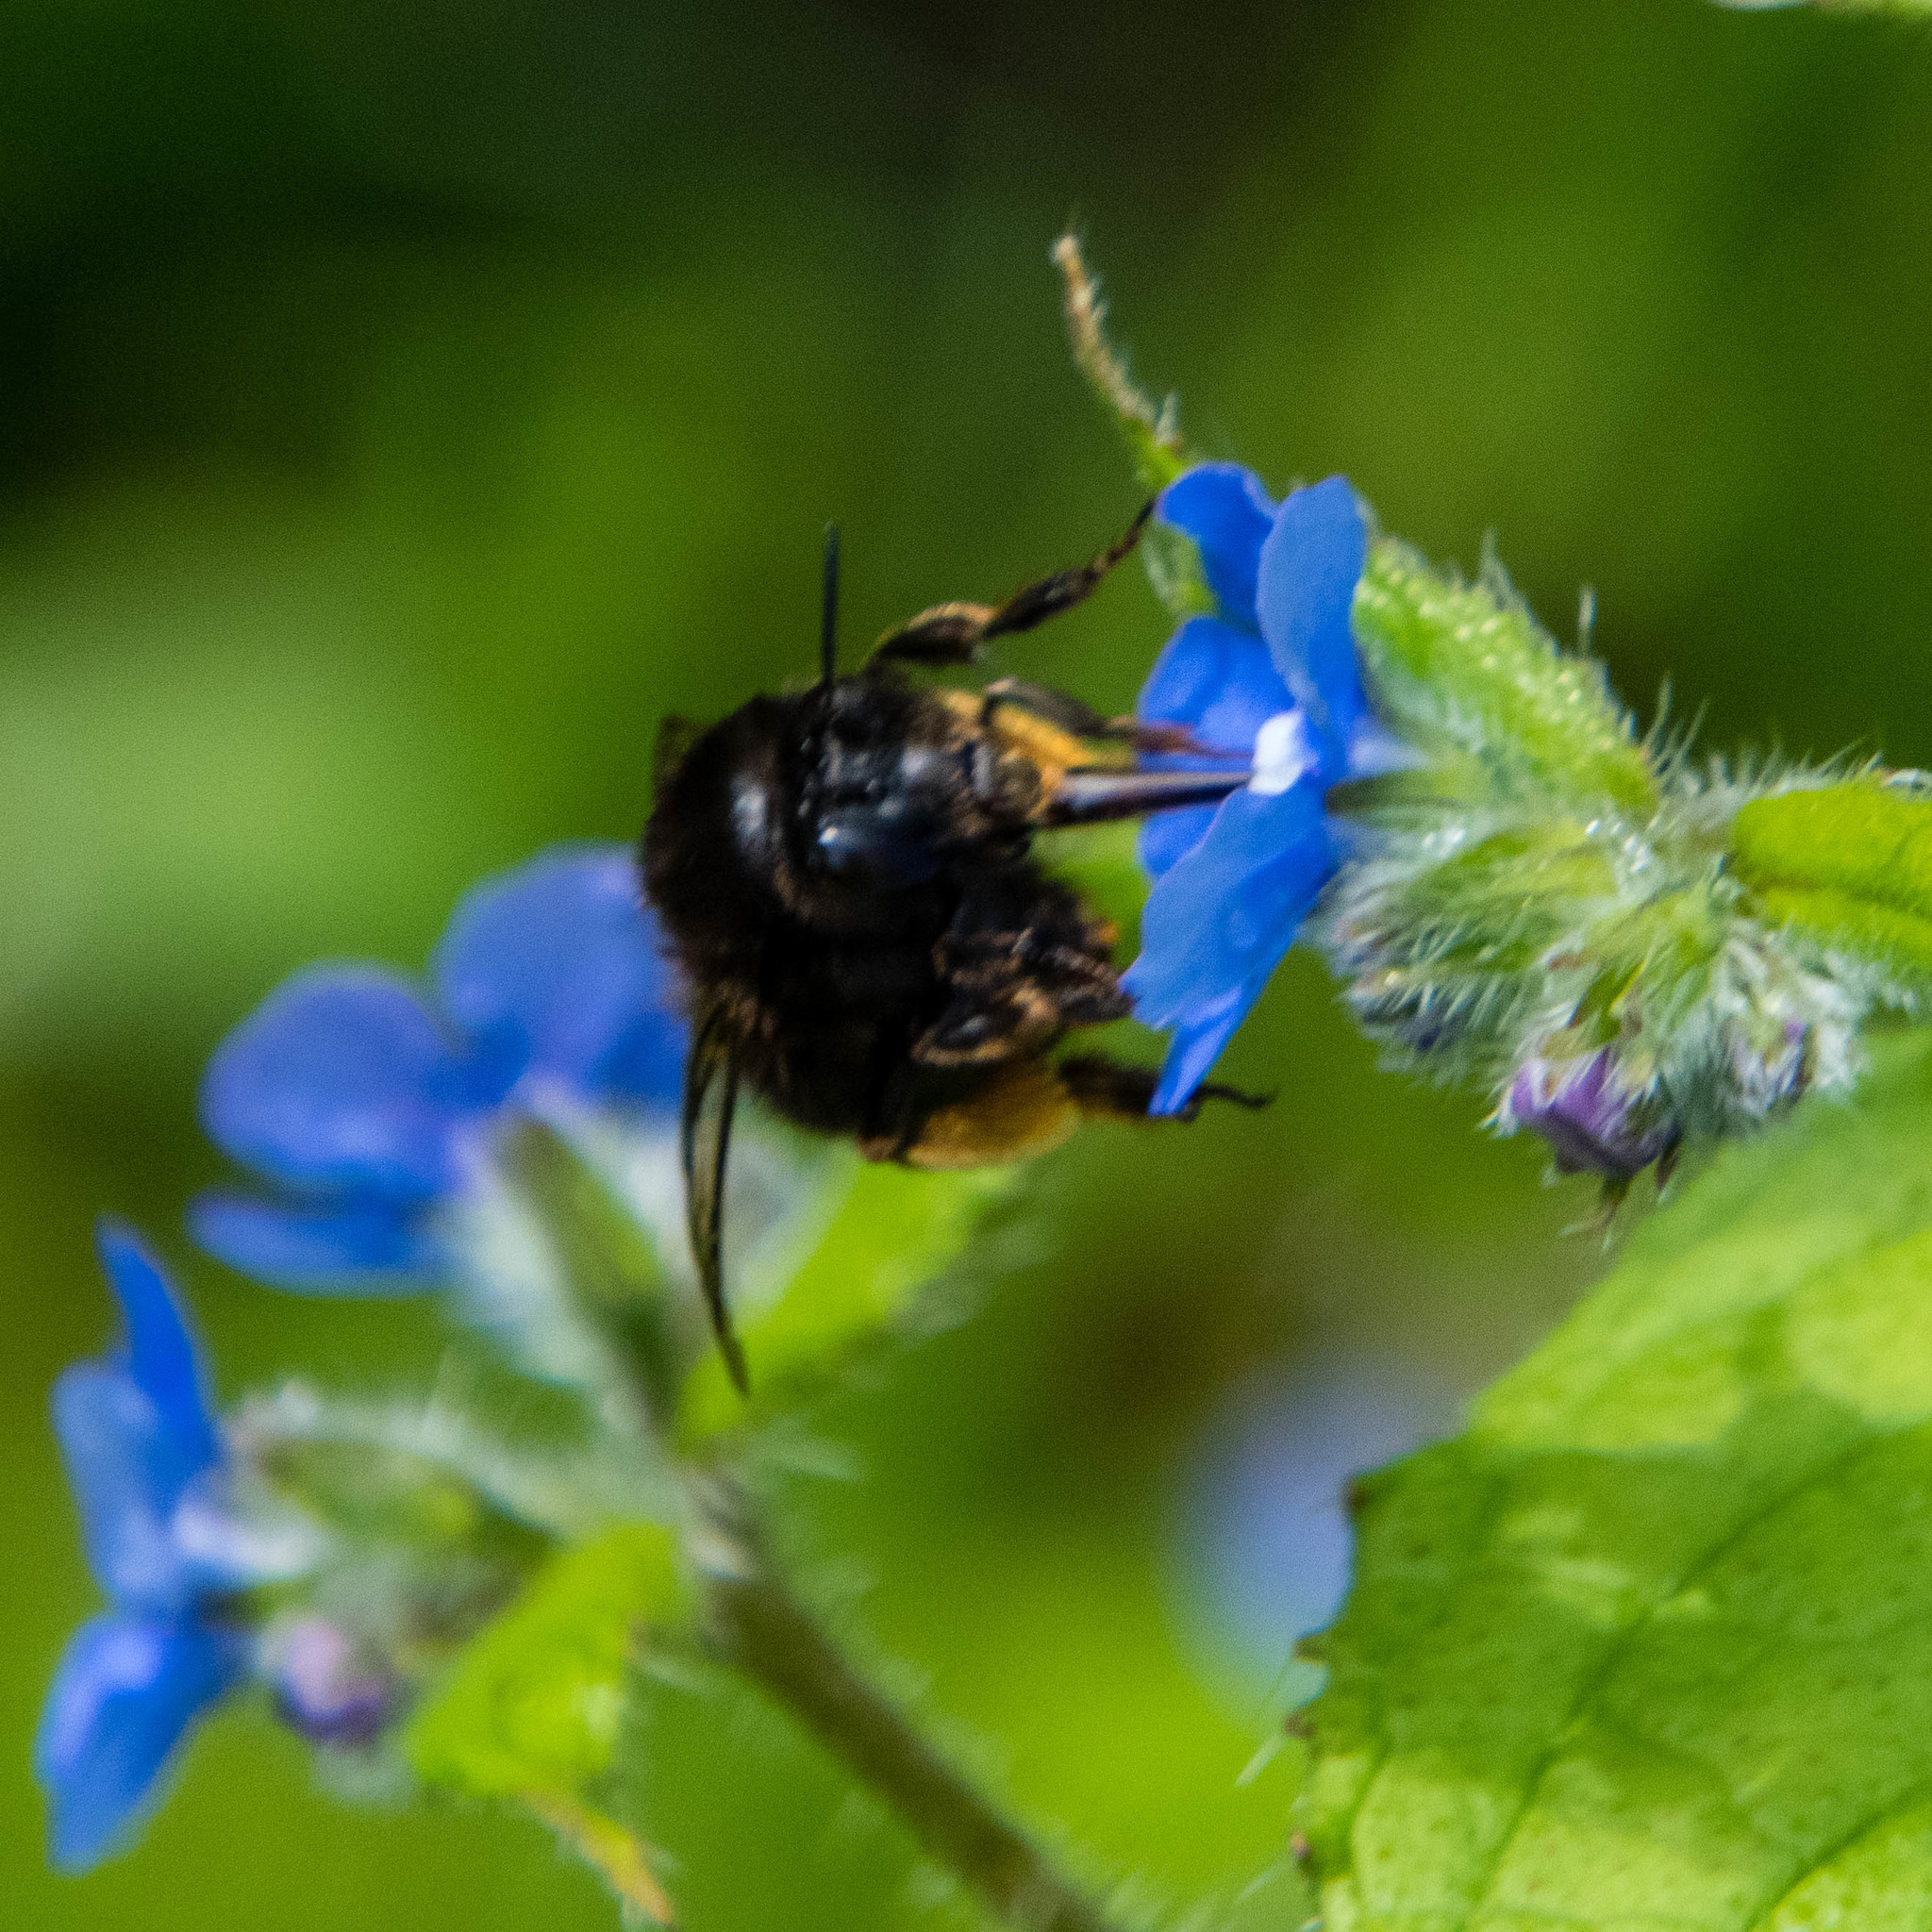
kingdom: Animalia
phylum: Arthropoda
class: Insecta
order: Hymenoptera
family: Apidae
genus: Anthophora
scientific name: Anthophora plumipes
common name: Hairy-footed flower bee
